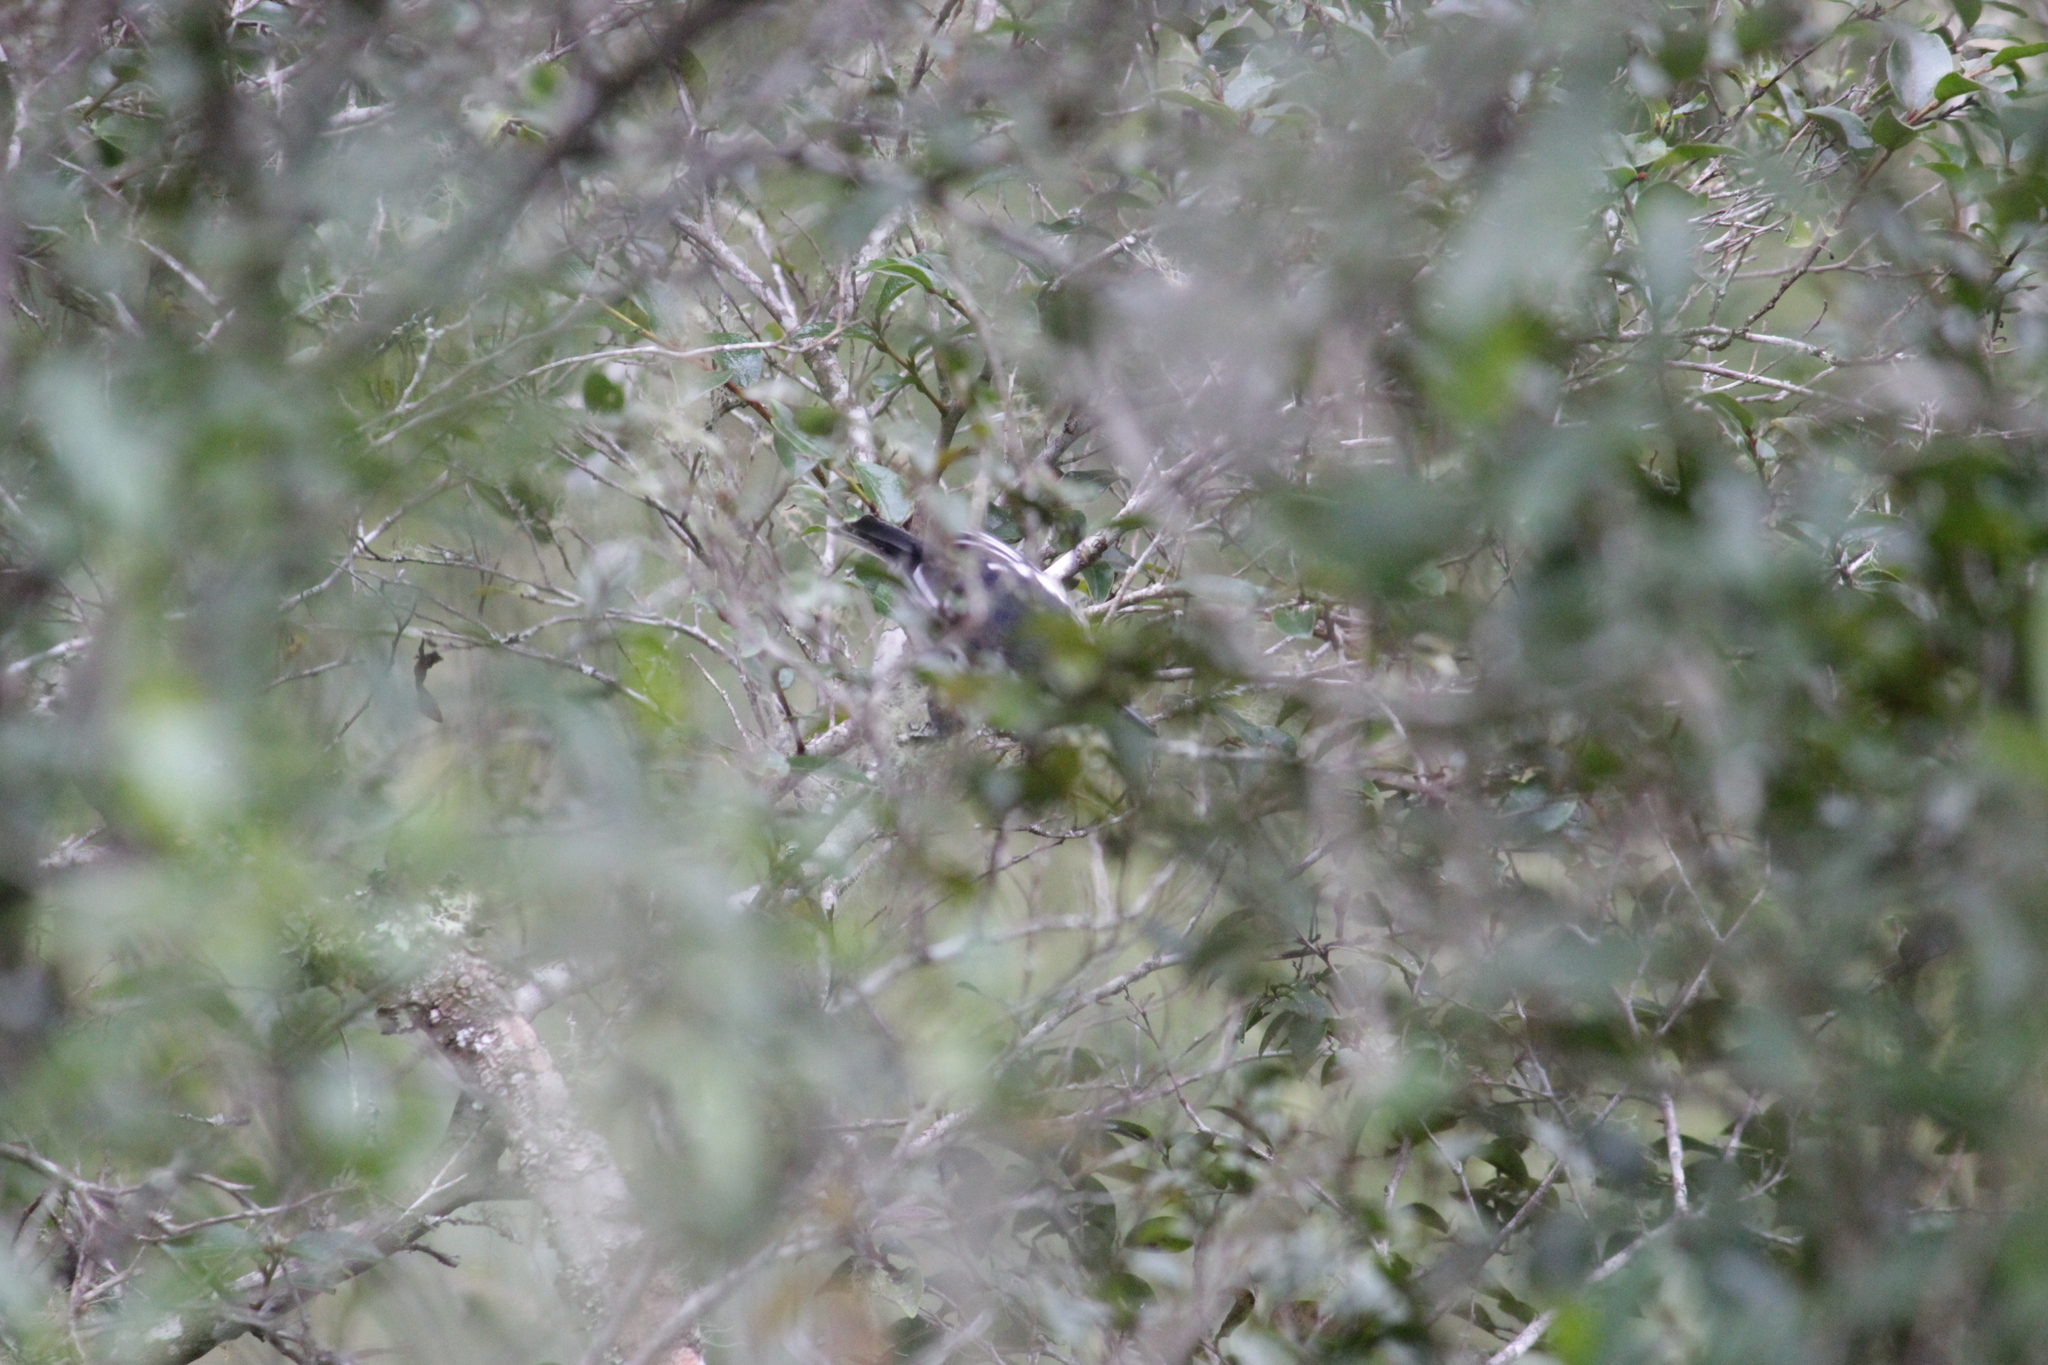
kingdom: Animalia
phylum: Chordata
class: Aves
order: Passeriformes
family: Malaconotidae
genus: Dryoscopus
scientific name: Dryoscopus cubla
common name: Black-backed puffback
